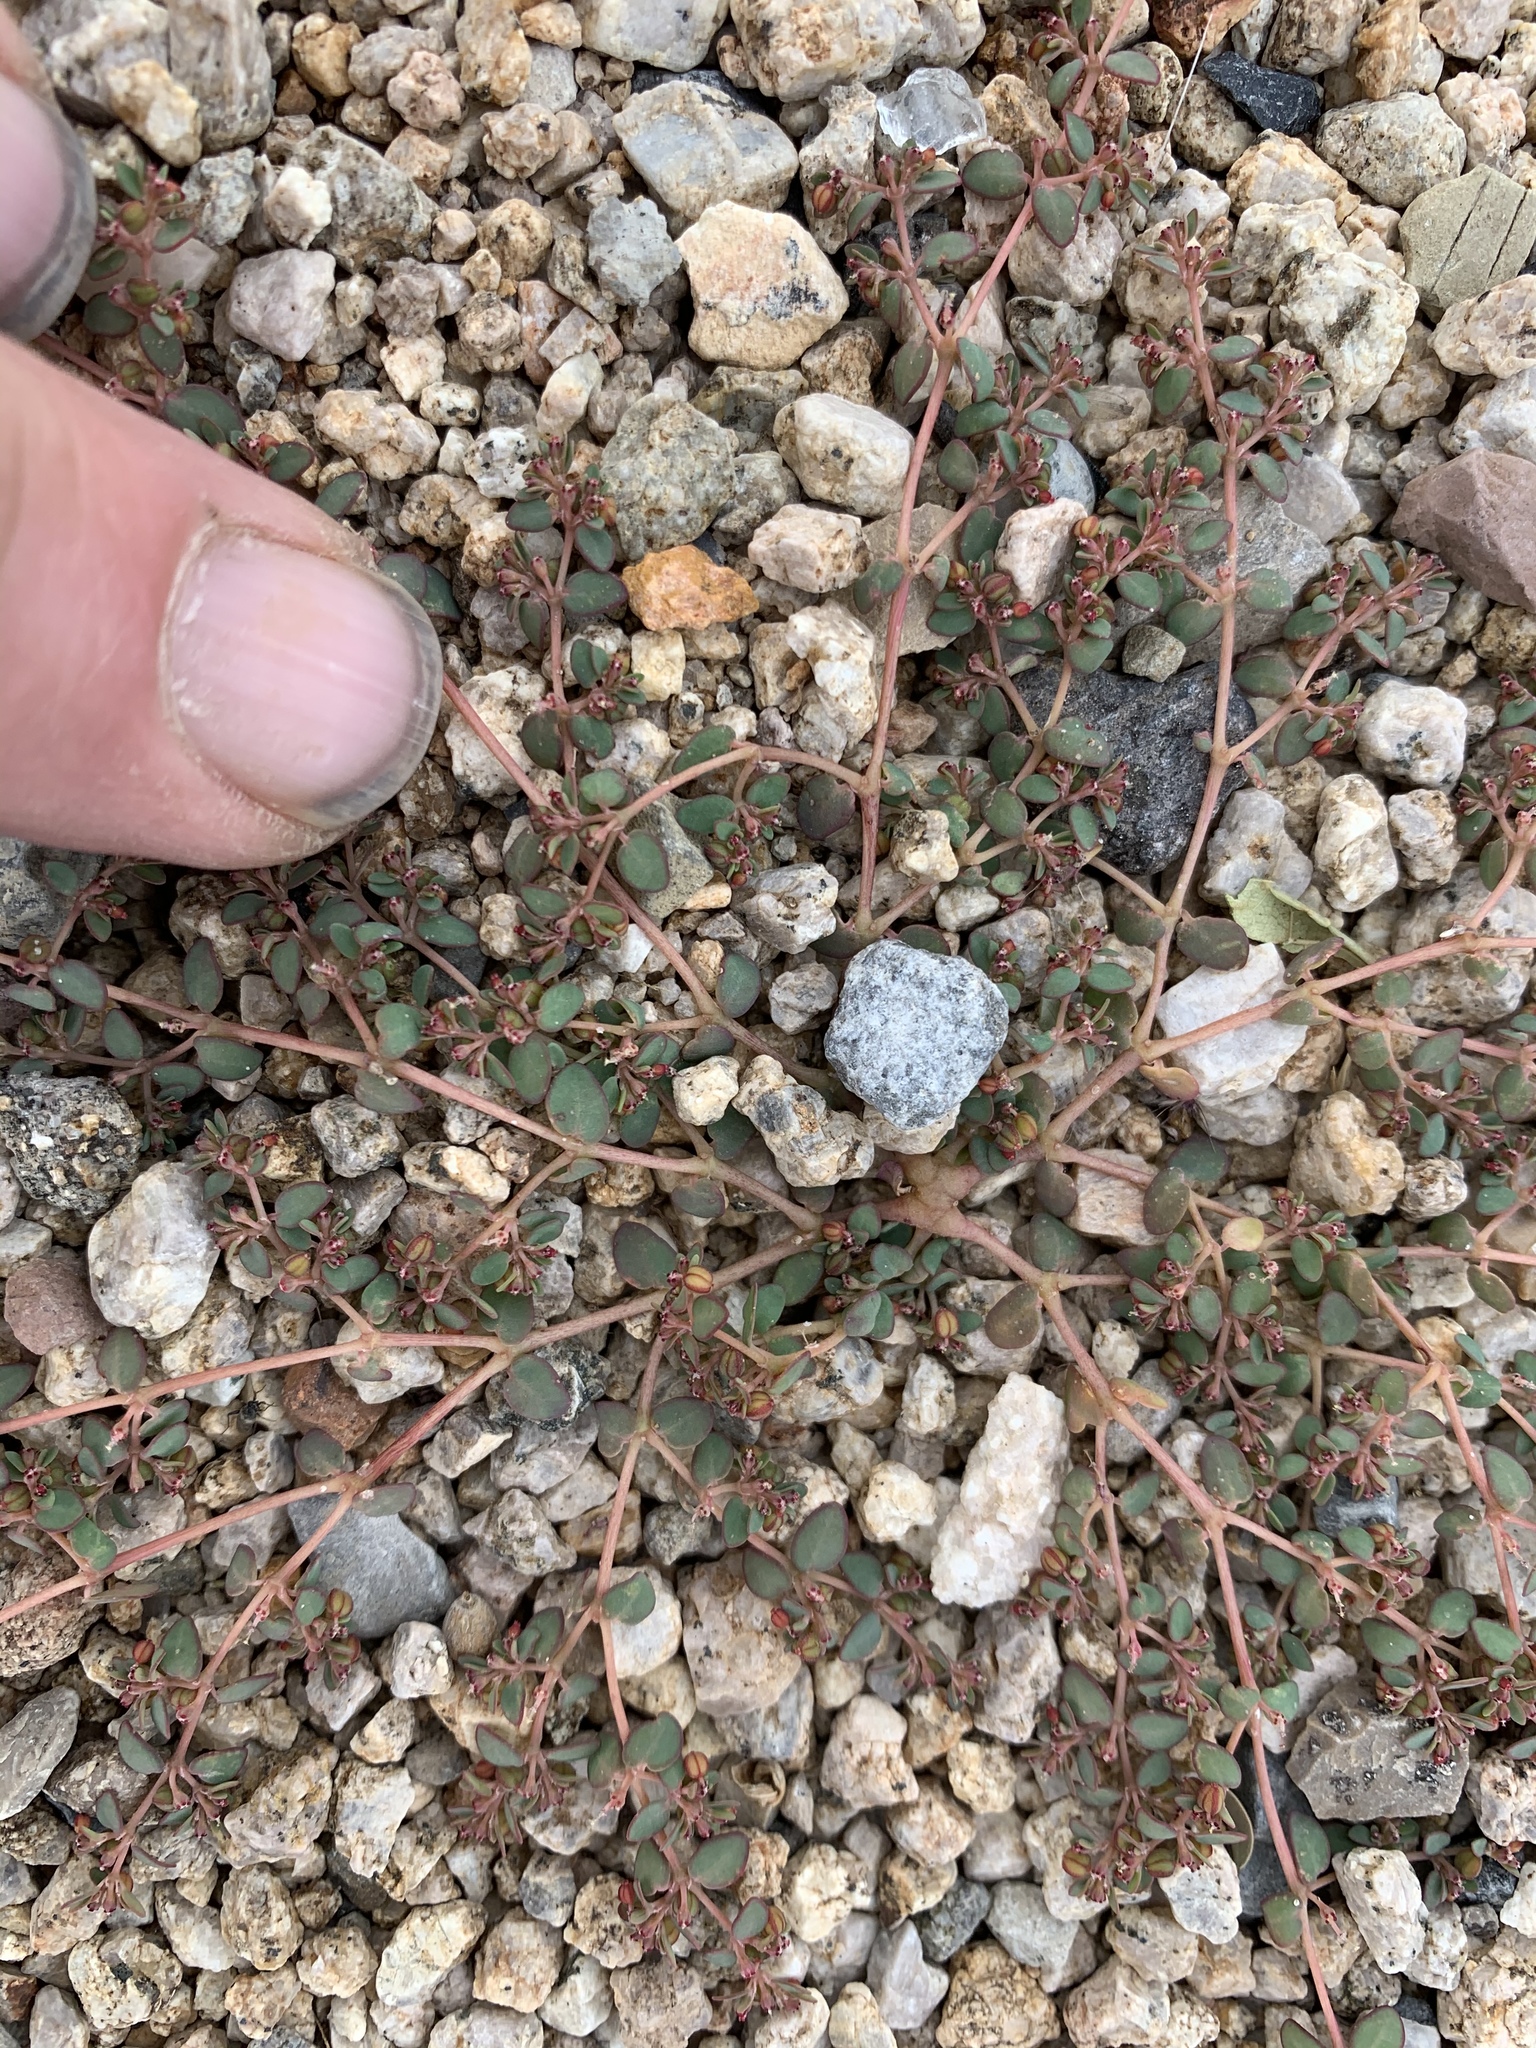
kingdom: Plantae
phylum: Tracheophyta
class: Magnoliopsida
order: Malpighiales
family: Euphorbiaceae
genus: Euphorbia
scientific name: Euphorbia micromera
